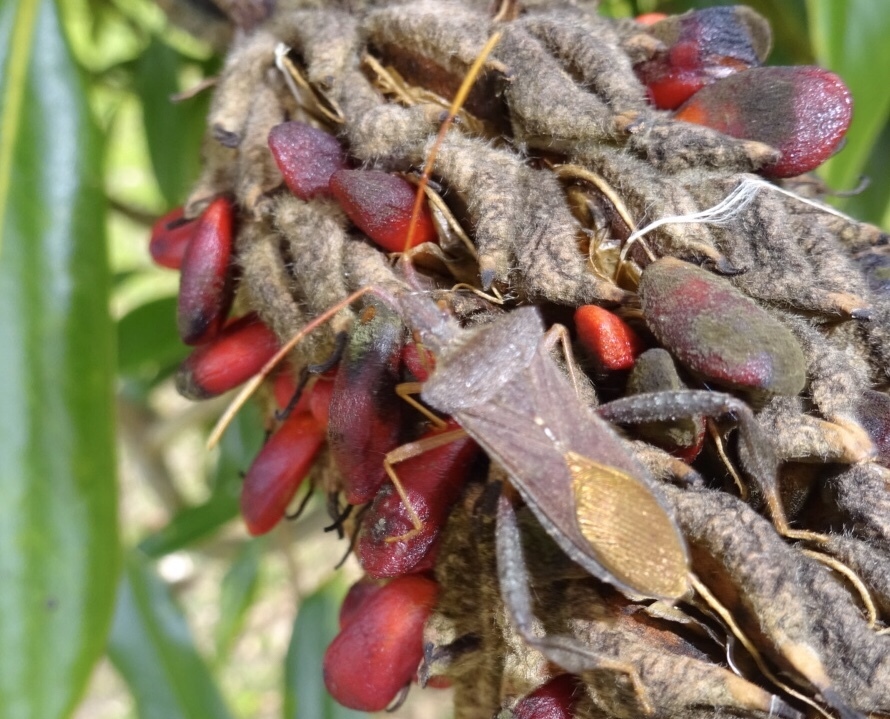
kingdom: Animalia
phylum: Arthropoda
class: Insecta
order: Hemiptera
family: Coreidae
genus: Leptoglossus
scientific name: Leptoglossus fulvicornis
